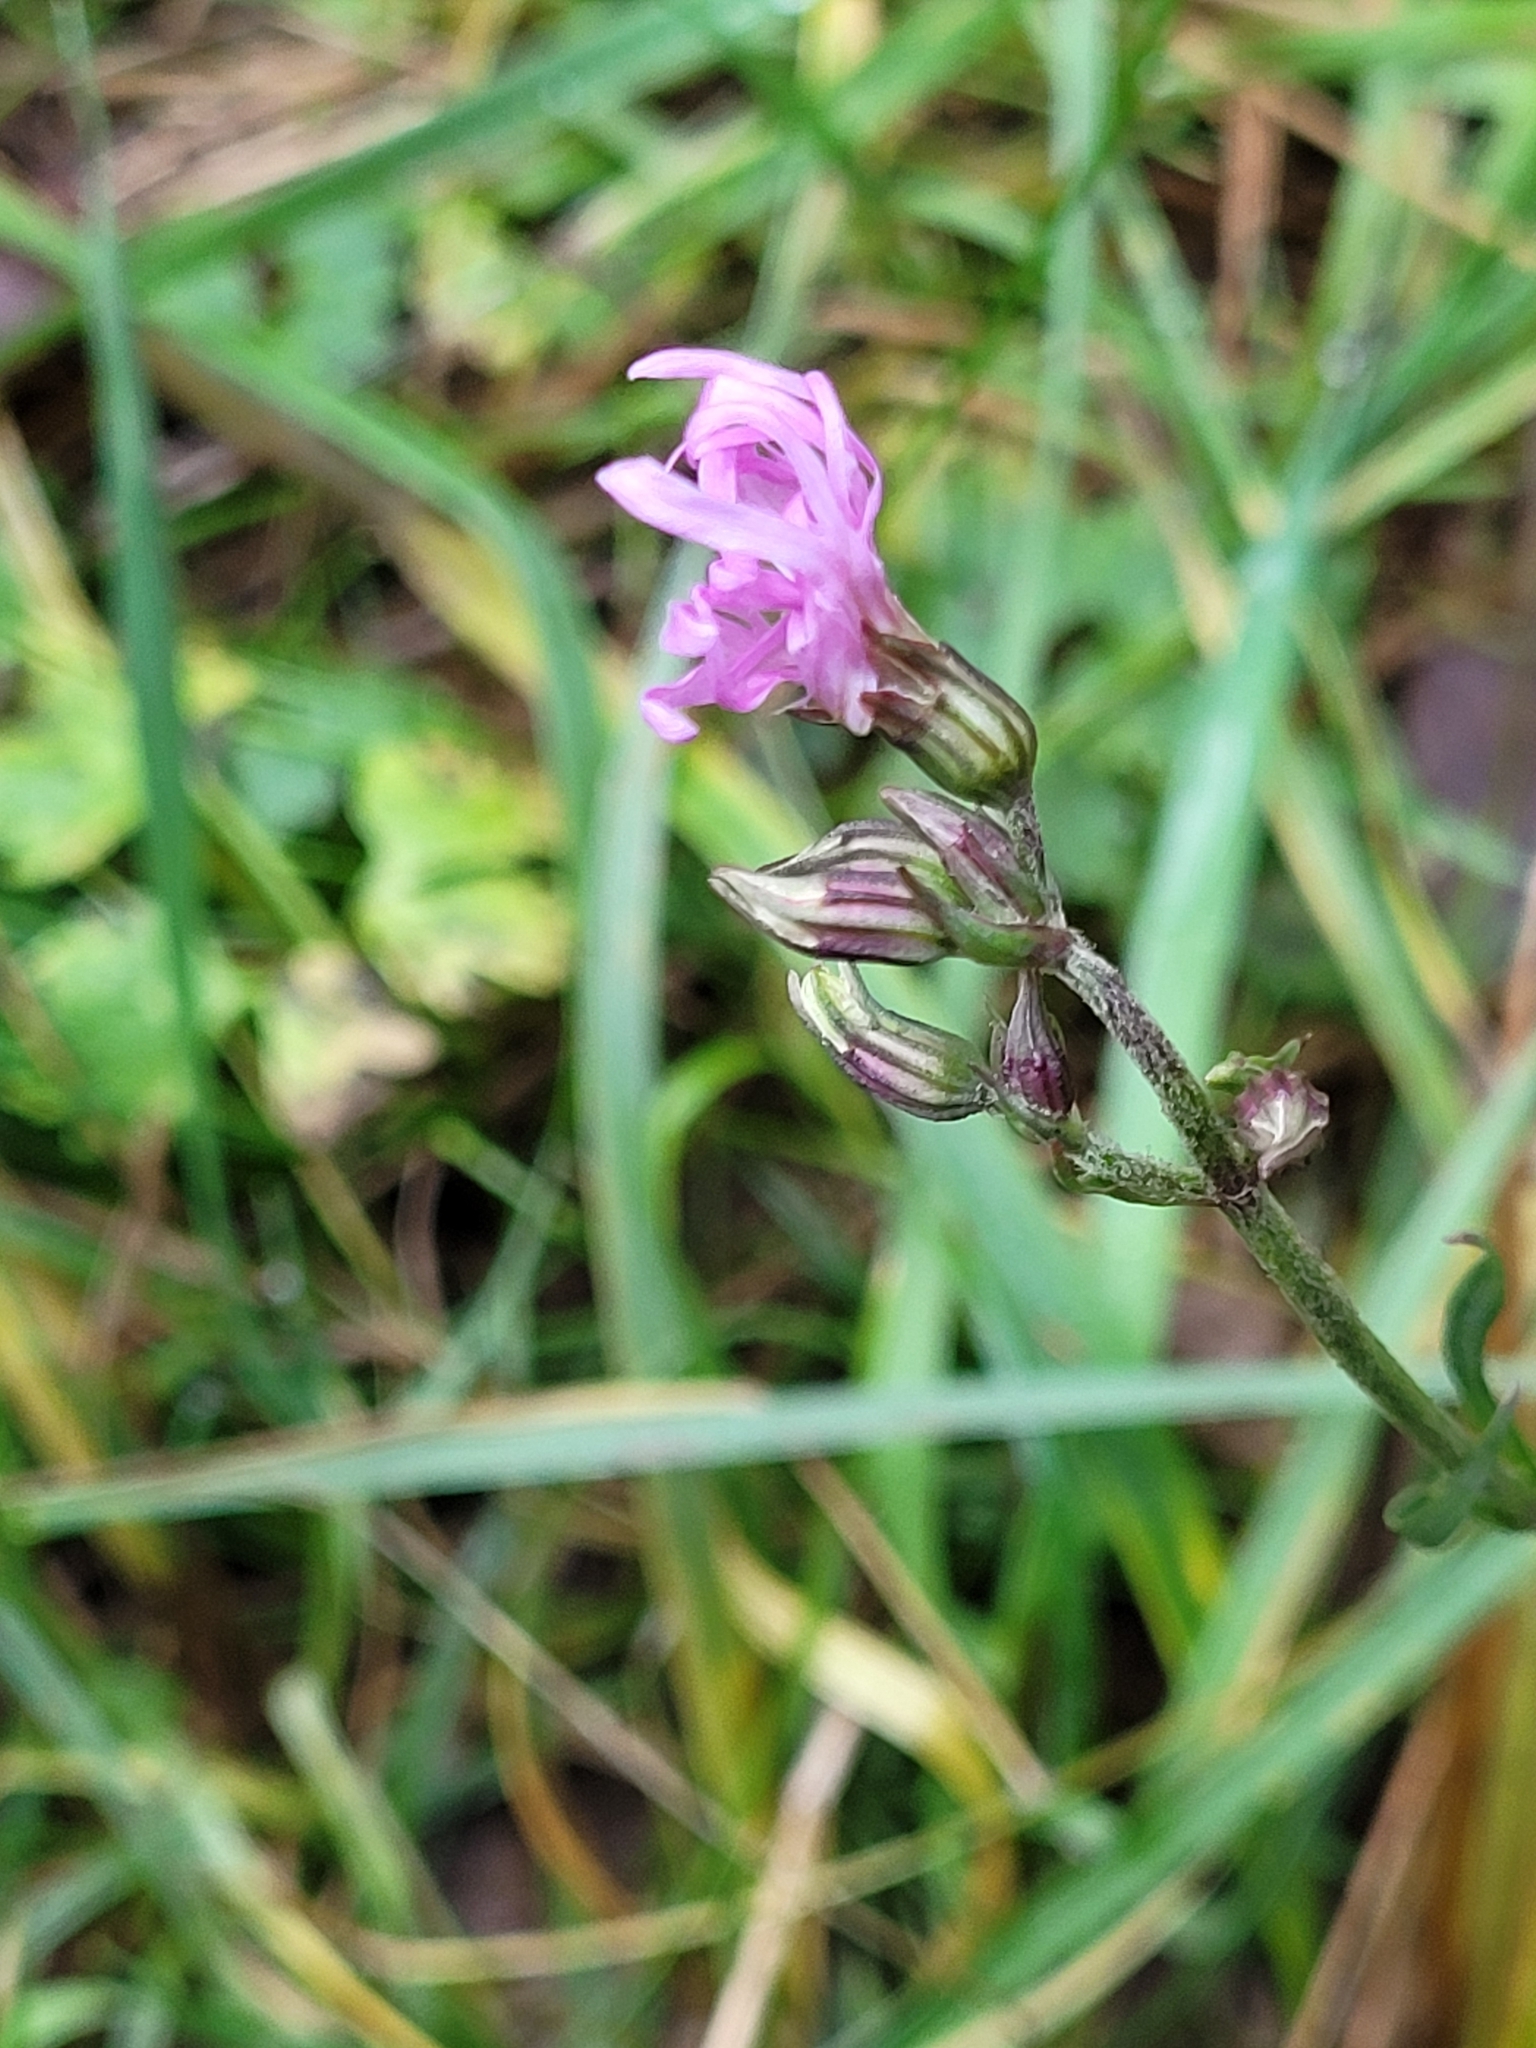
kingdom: Plantae
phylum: Tracheophyta
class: Magnoliopsida
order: Caryophyllales
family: Caryophyllaceae
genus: Silene
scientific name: Silene flos-cuculi
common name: Ragged-robin
